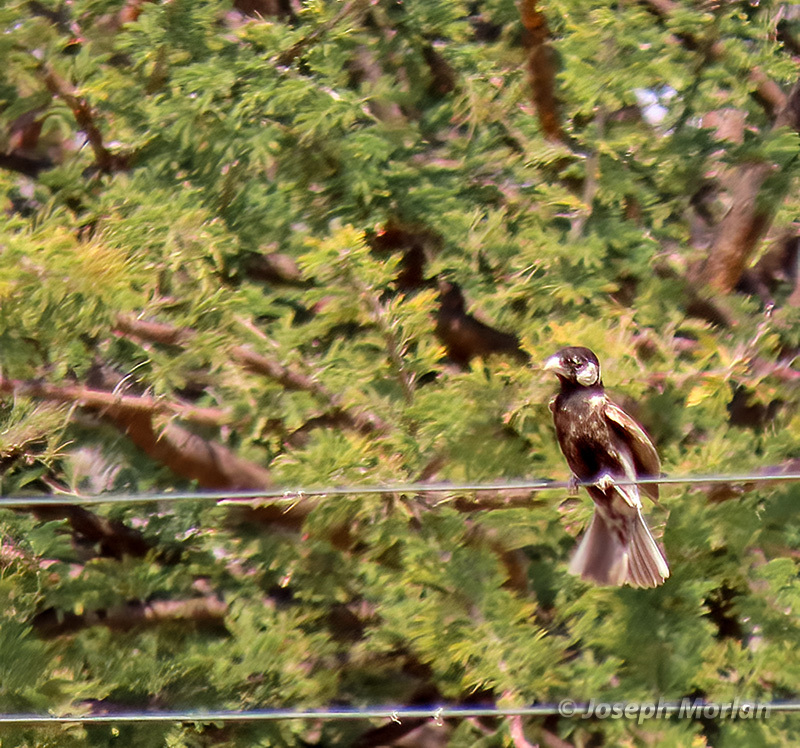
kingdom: Animalia
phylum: Chordata
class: Aves
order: Passeriformes
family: Alaudidae
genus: Eremopterix
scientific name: Eremopterix leucotis
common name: Chestnut-backed sparrow-lark
